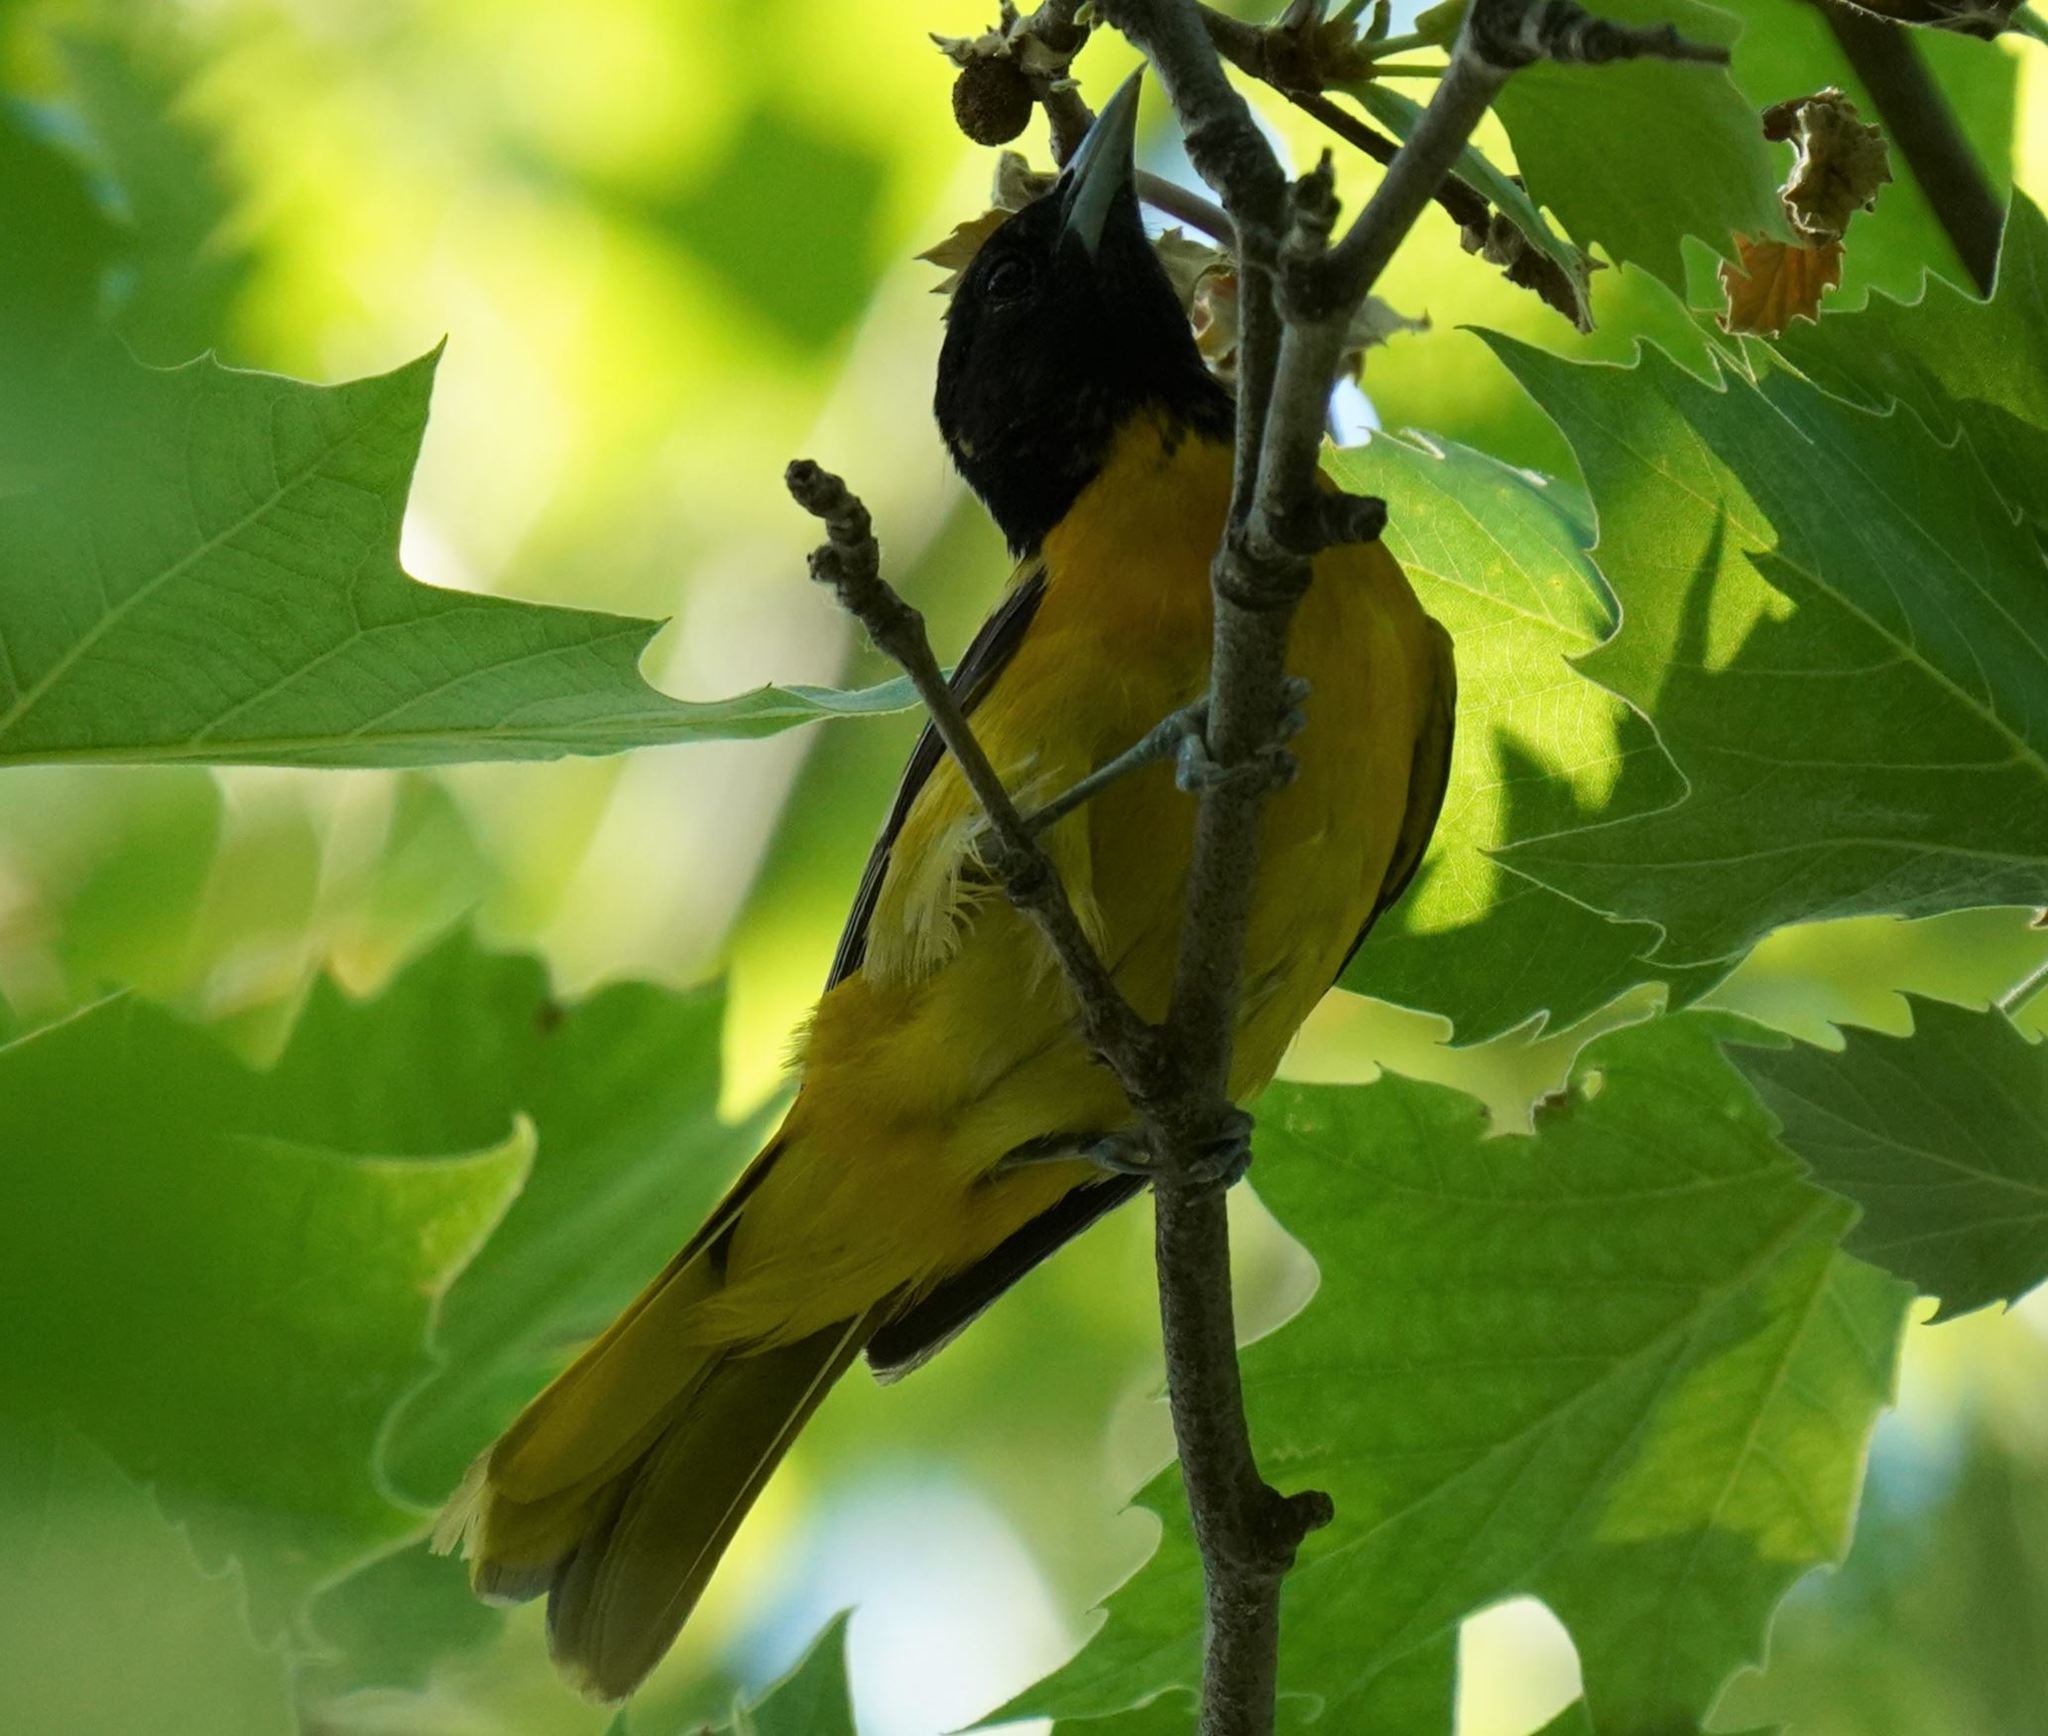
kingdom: Animalia
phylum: Chordata
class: Aves
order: Passeriformes
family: Icteridae
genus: Icterus
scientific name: Icterus galbula
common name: Baltimore oriole
